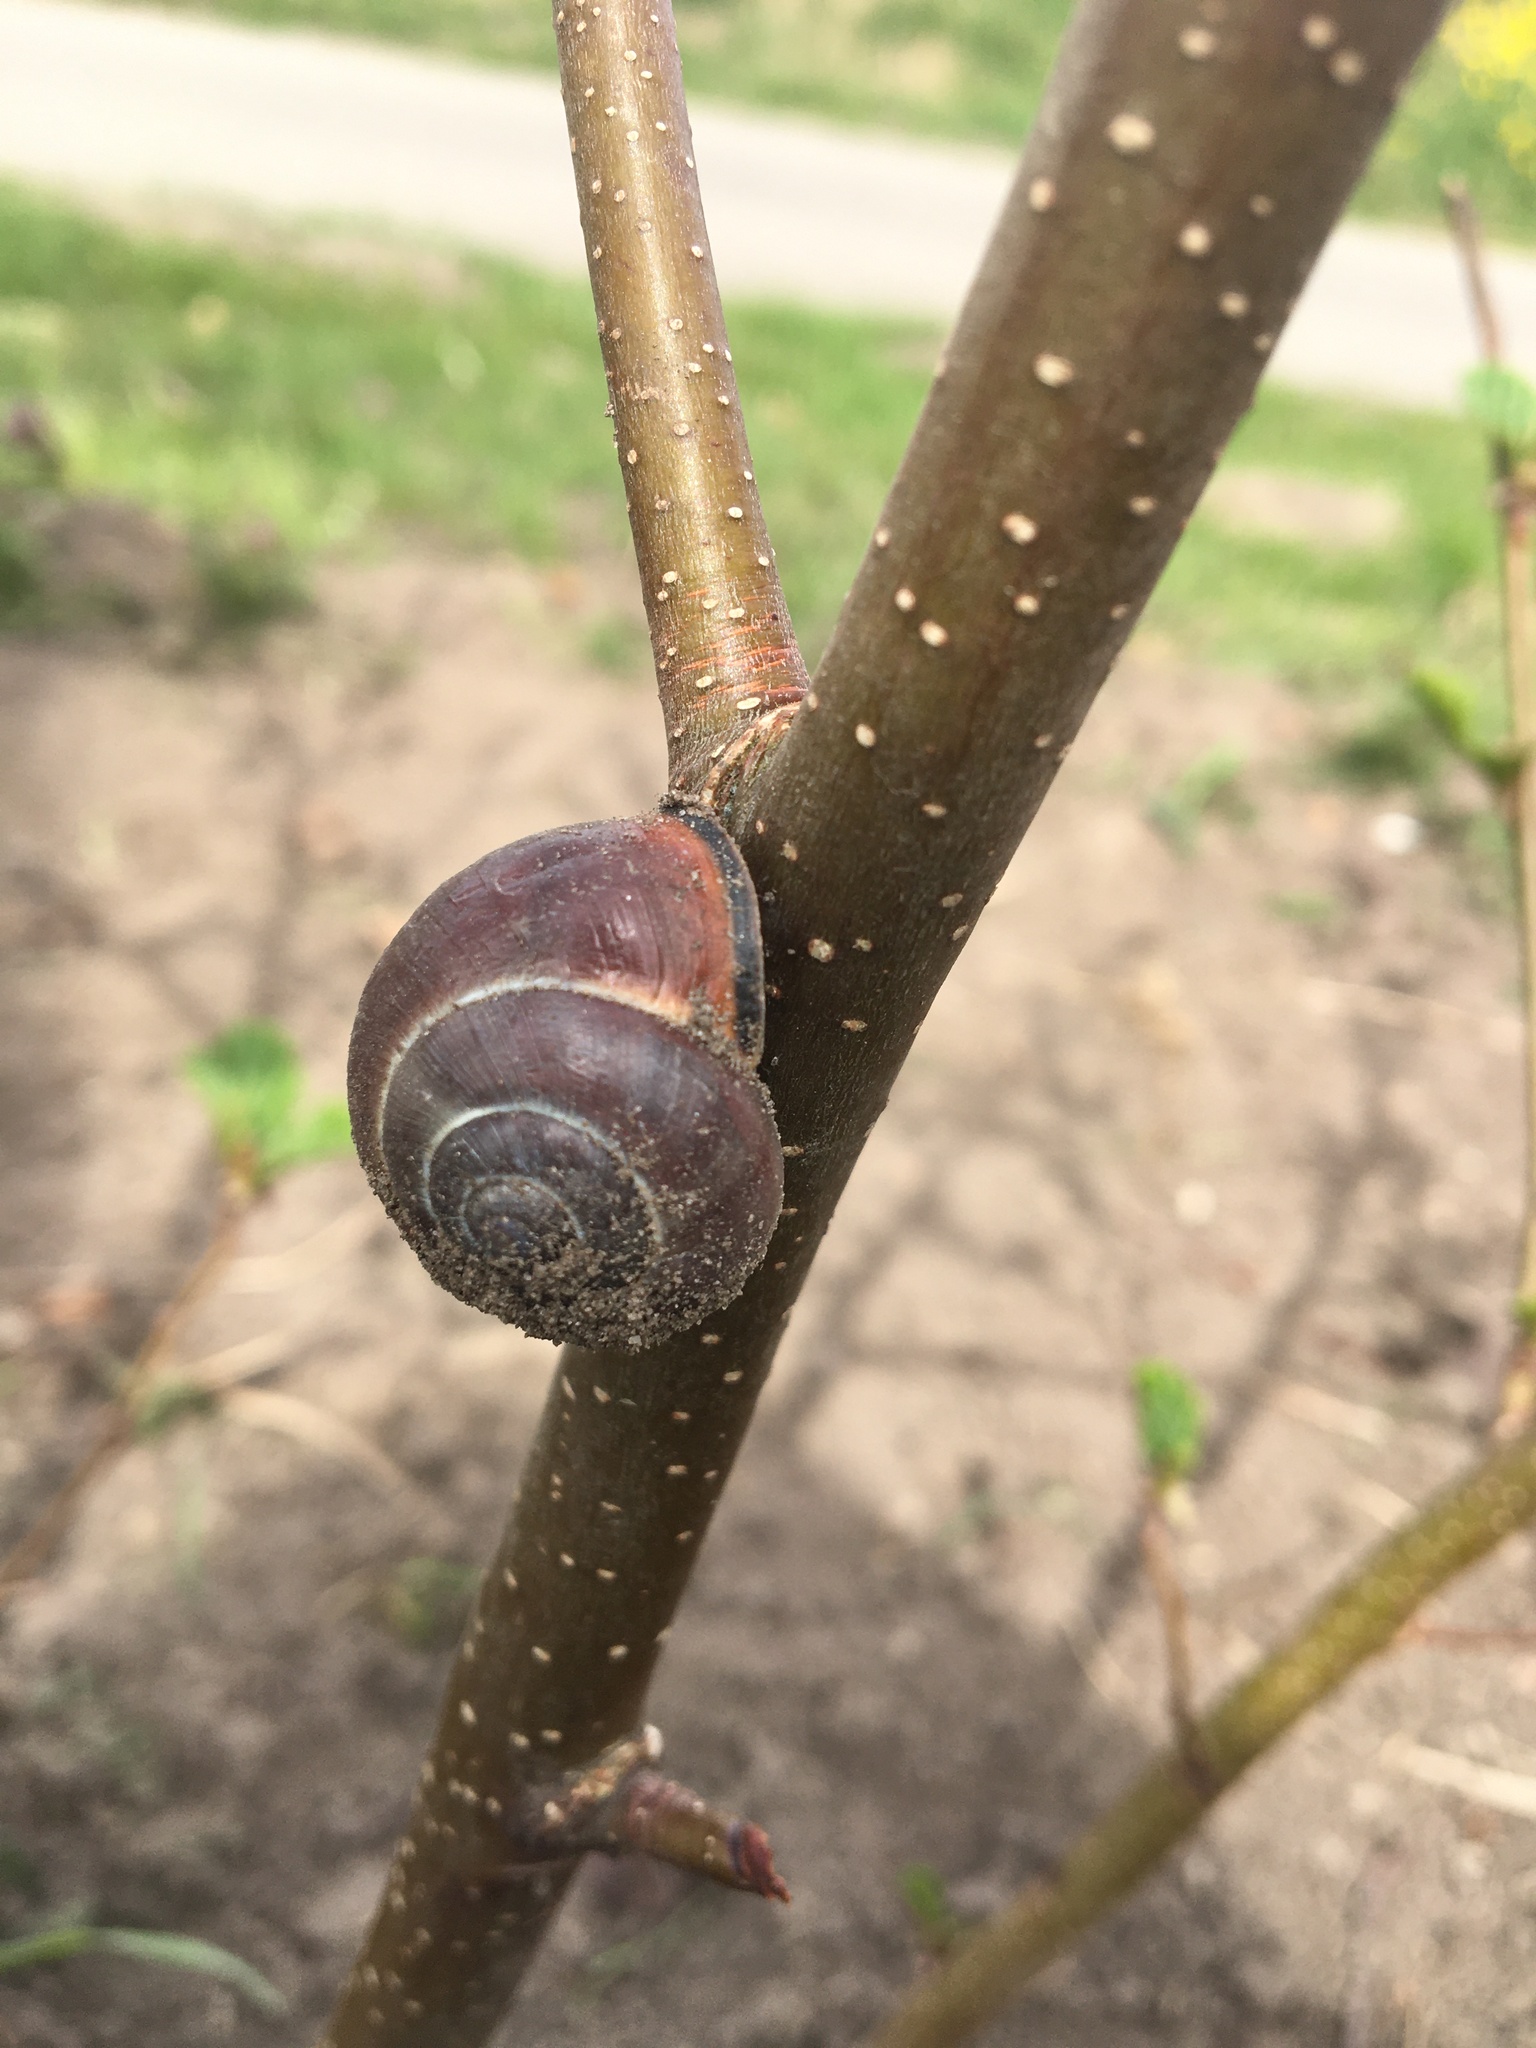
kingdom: Animalia
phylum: Mollusca
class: Gastropoda
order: Stylommatophora
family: Helicidae
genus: Cepaea
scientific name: Cepaea nemoralis
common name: Grovesnail
